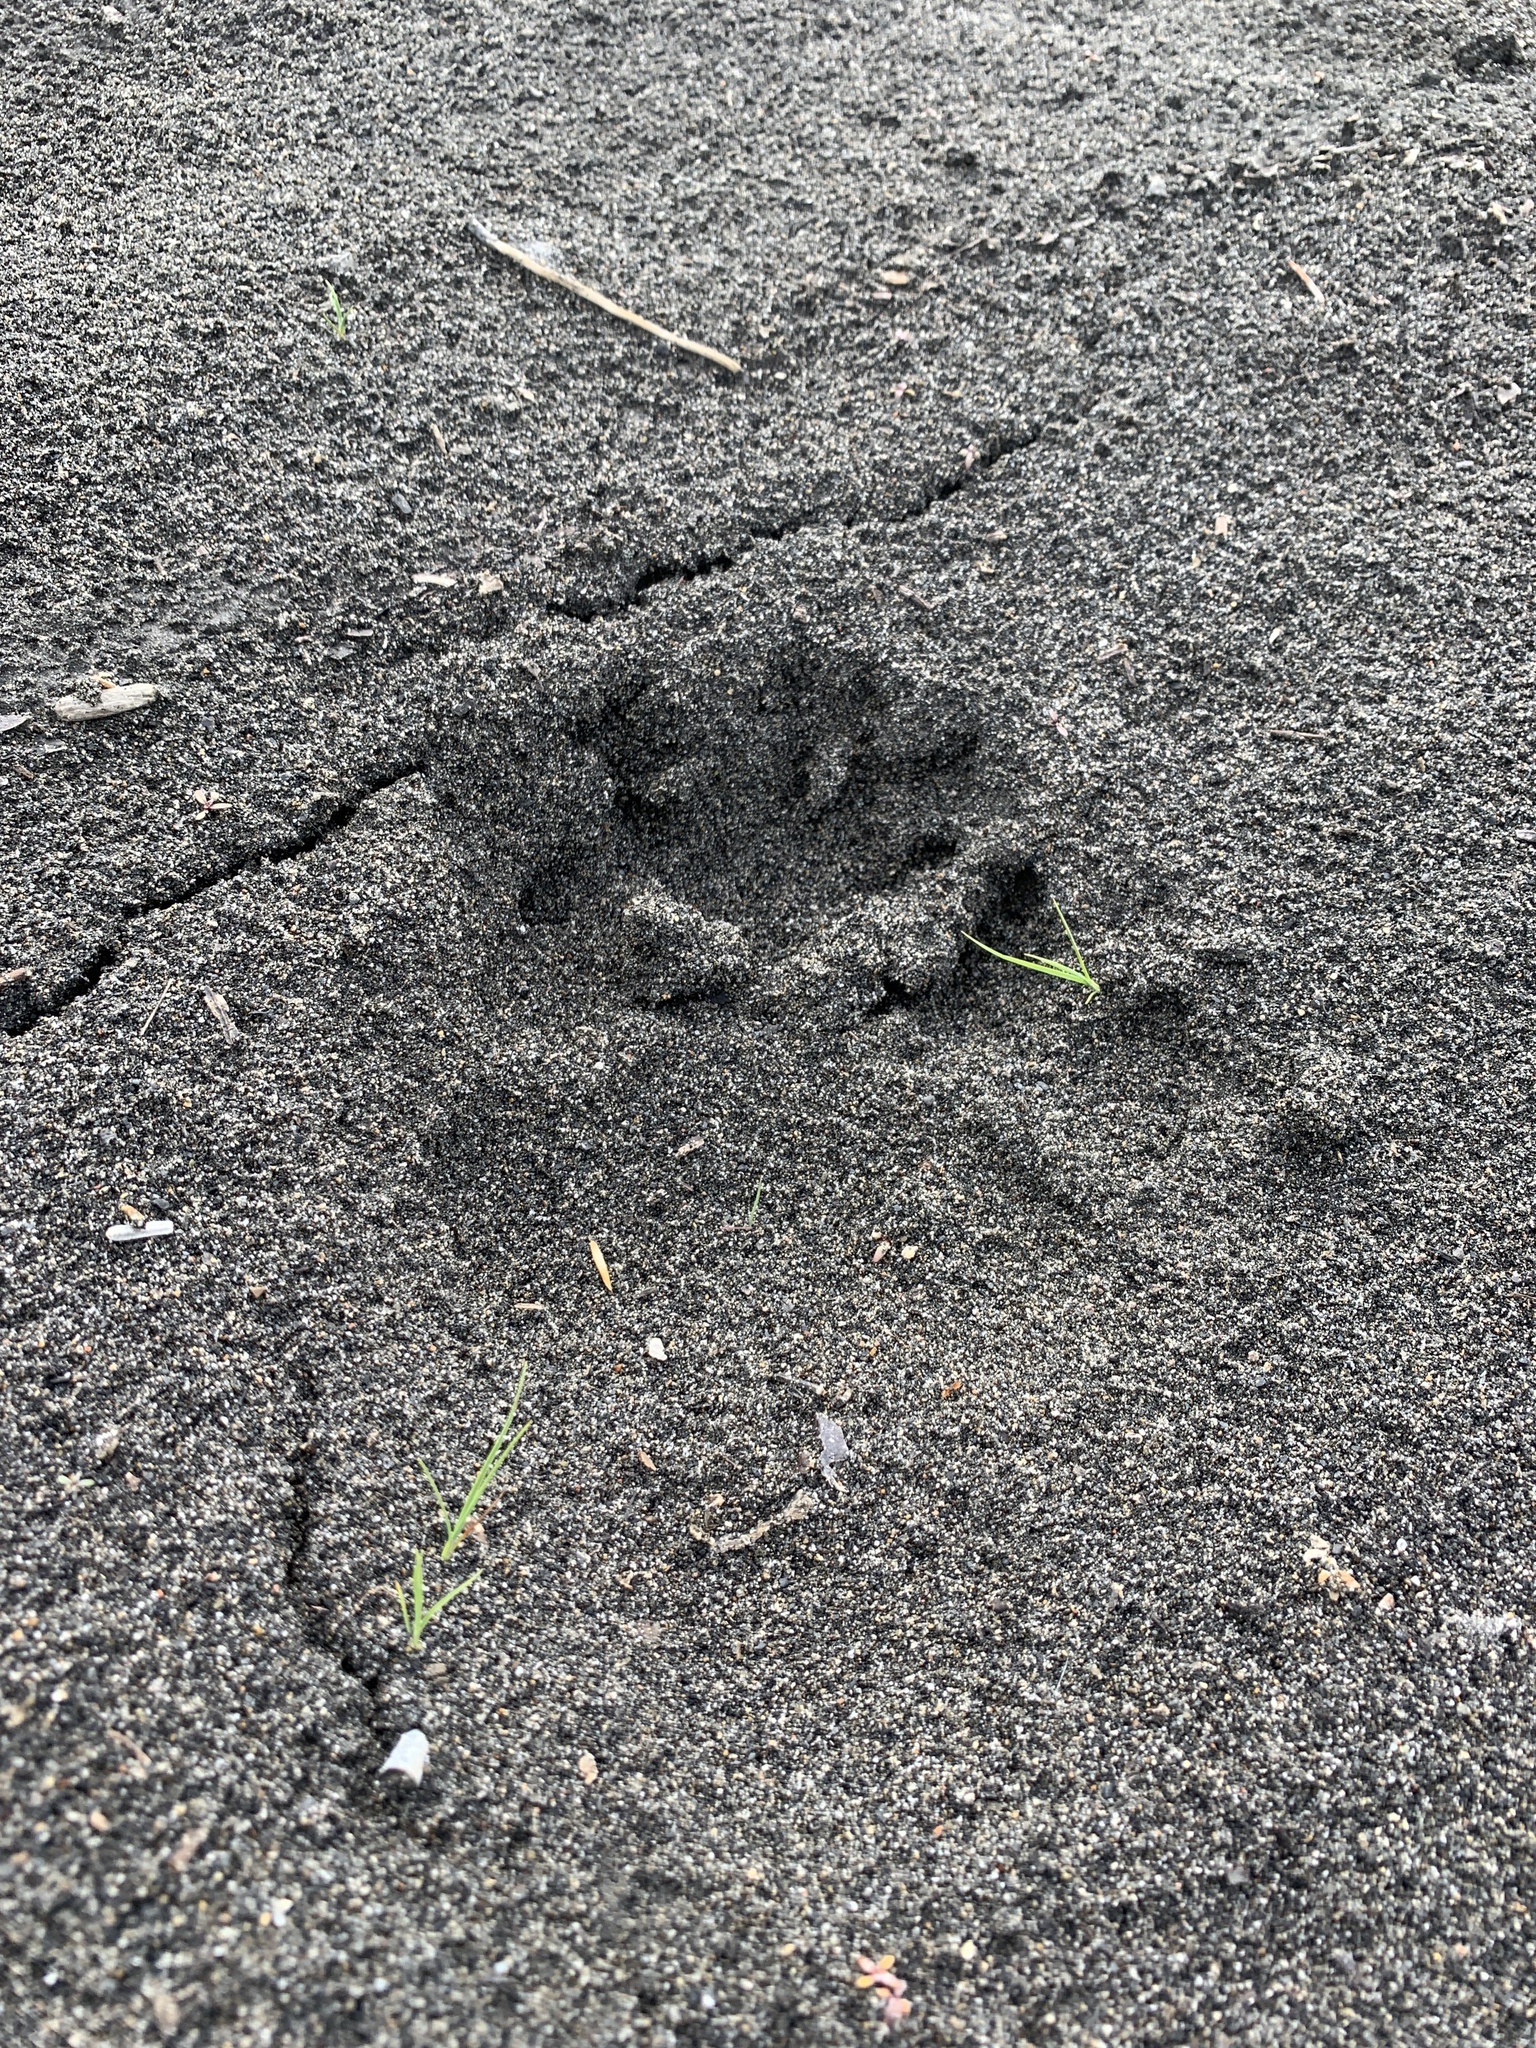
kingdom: Animalia
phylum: Chordata
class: Mammalia
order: Carnivora
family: Ursidae
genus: Ursus
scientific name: Ursus americanus
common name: American black bear
